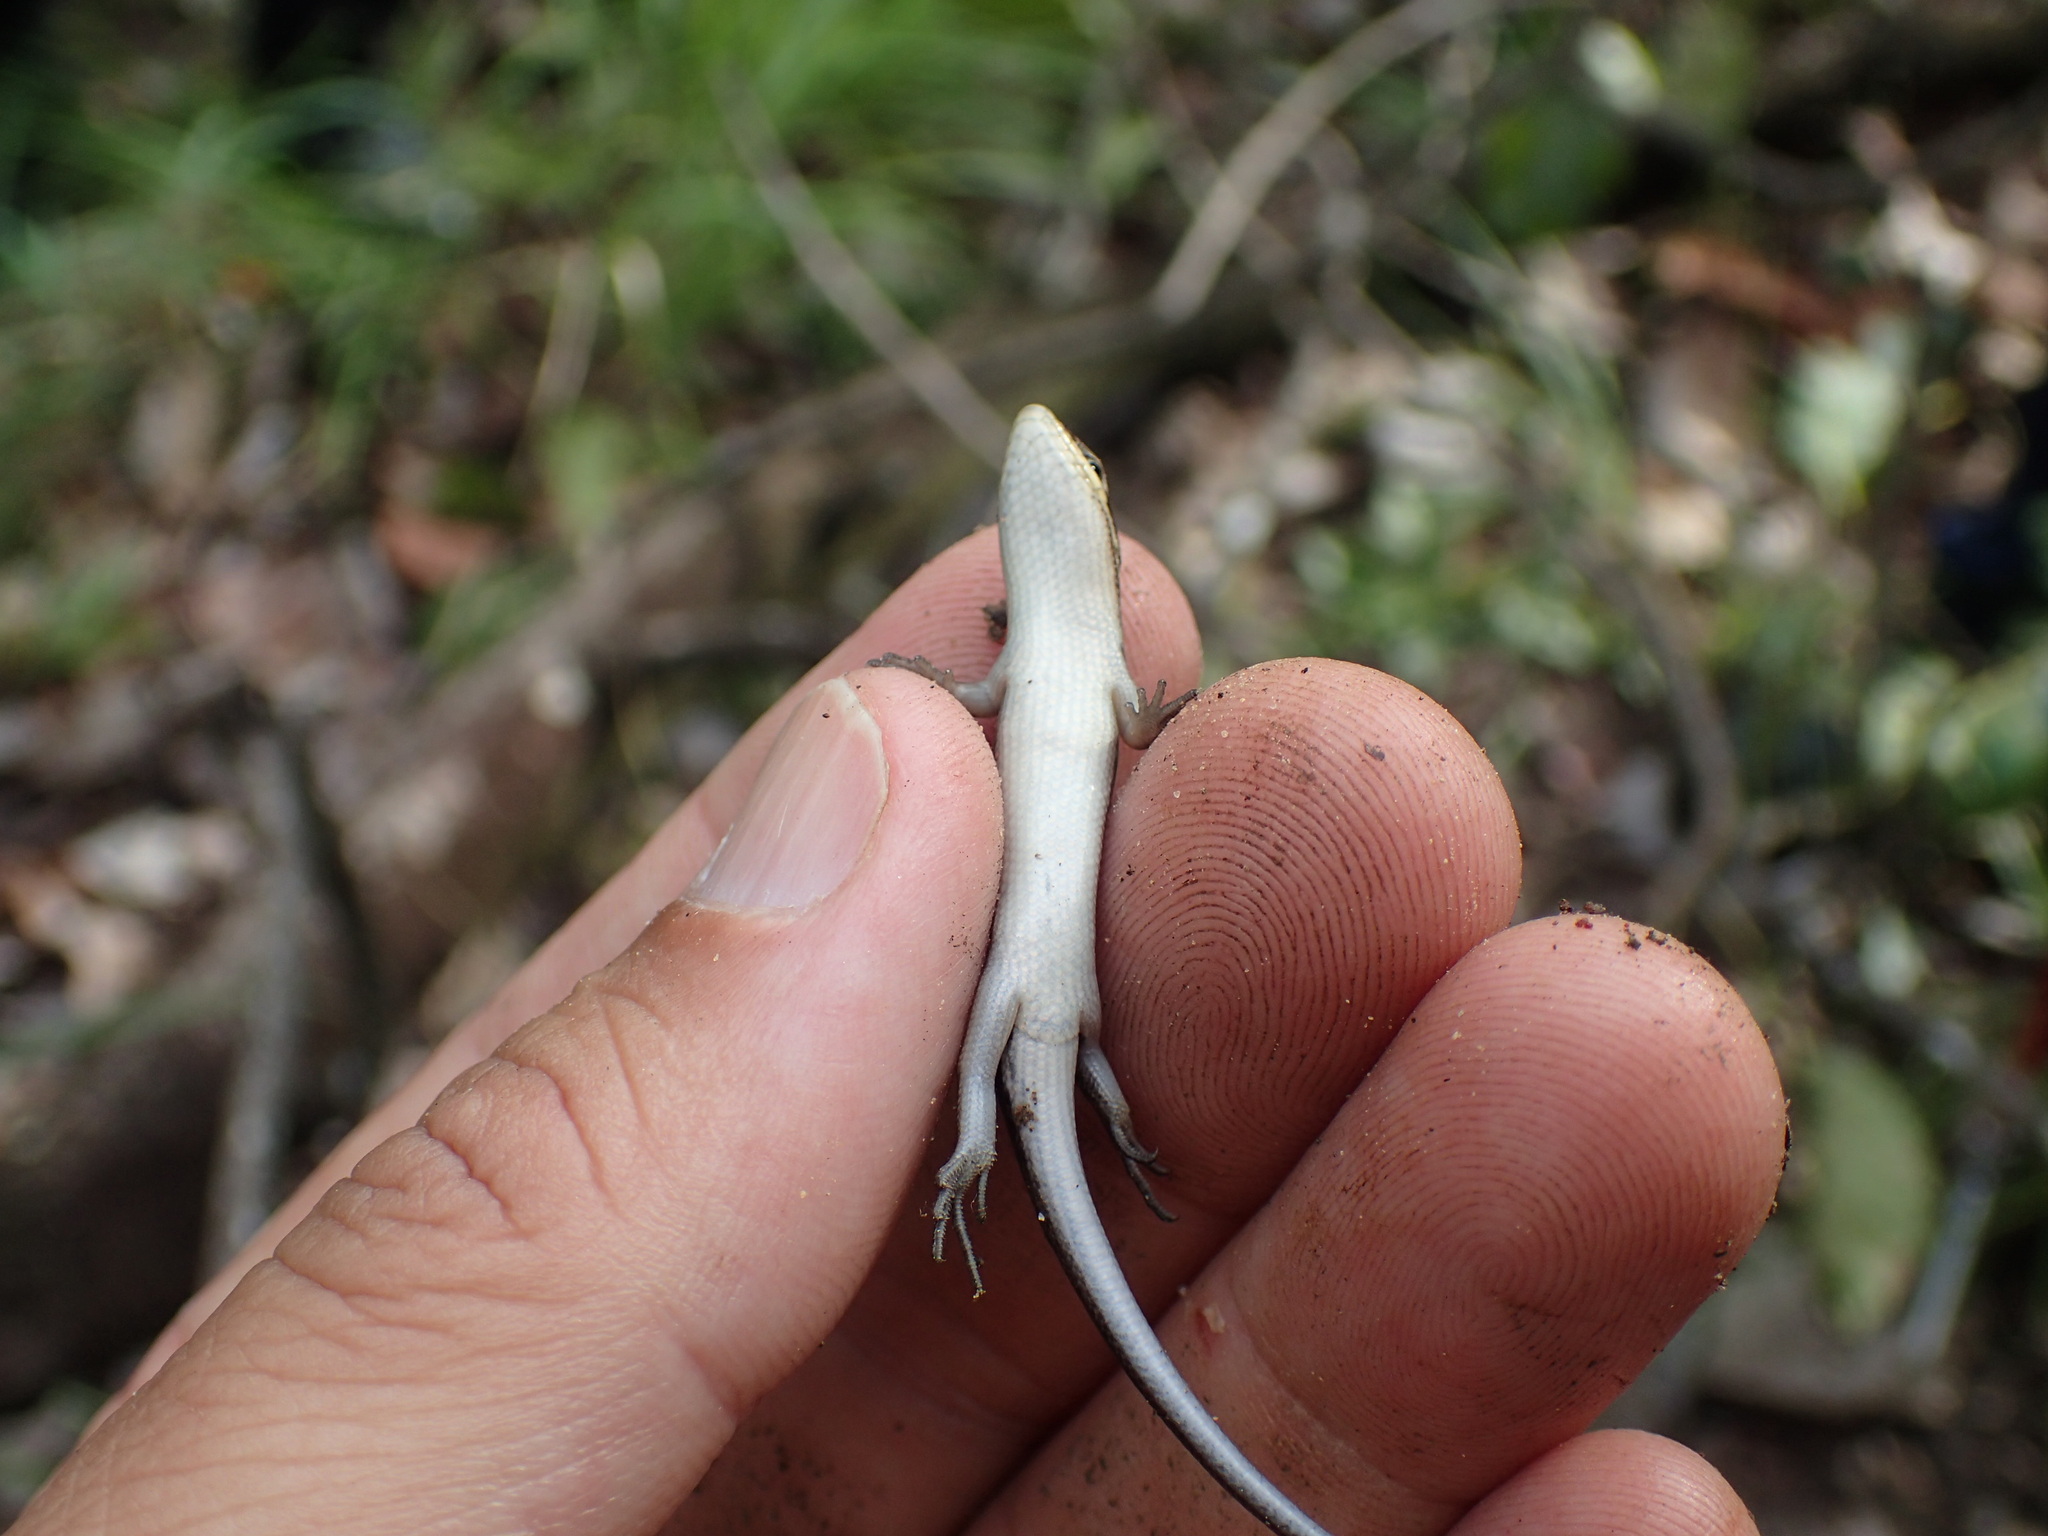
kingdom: Animalia
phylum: Chordata
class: Squamata
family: Scincidae
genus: Trachylepis
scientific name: Trachylepis varia
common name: Eastern variable skink
